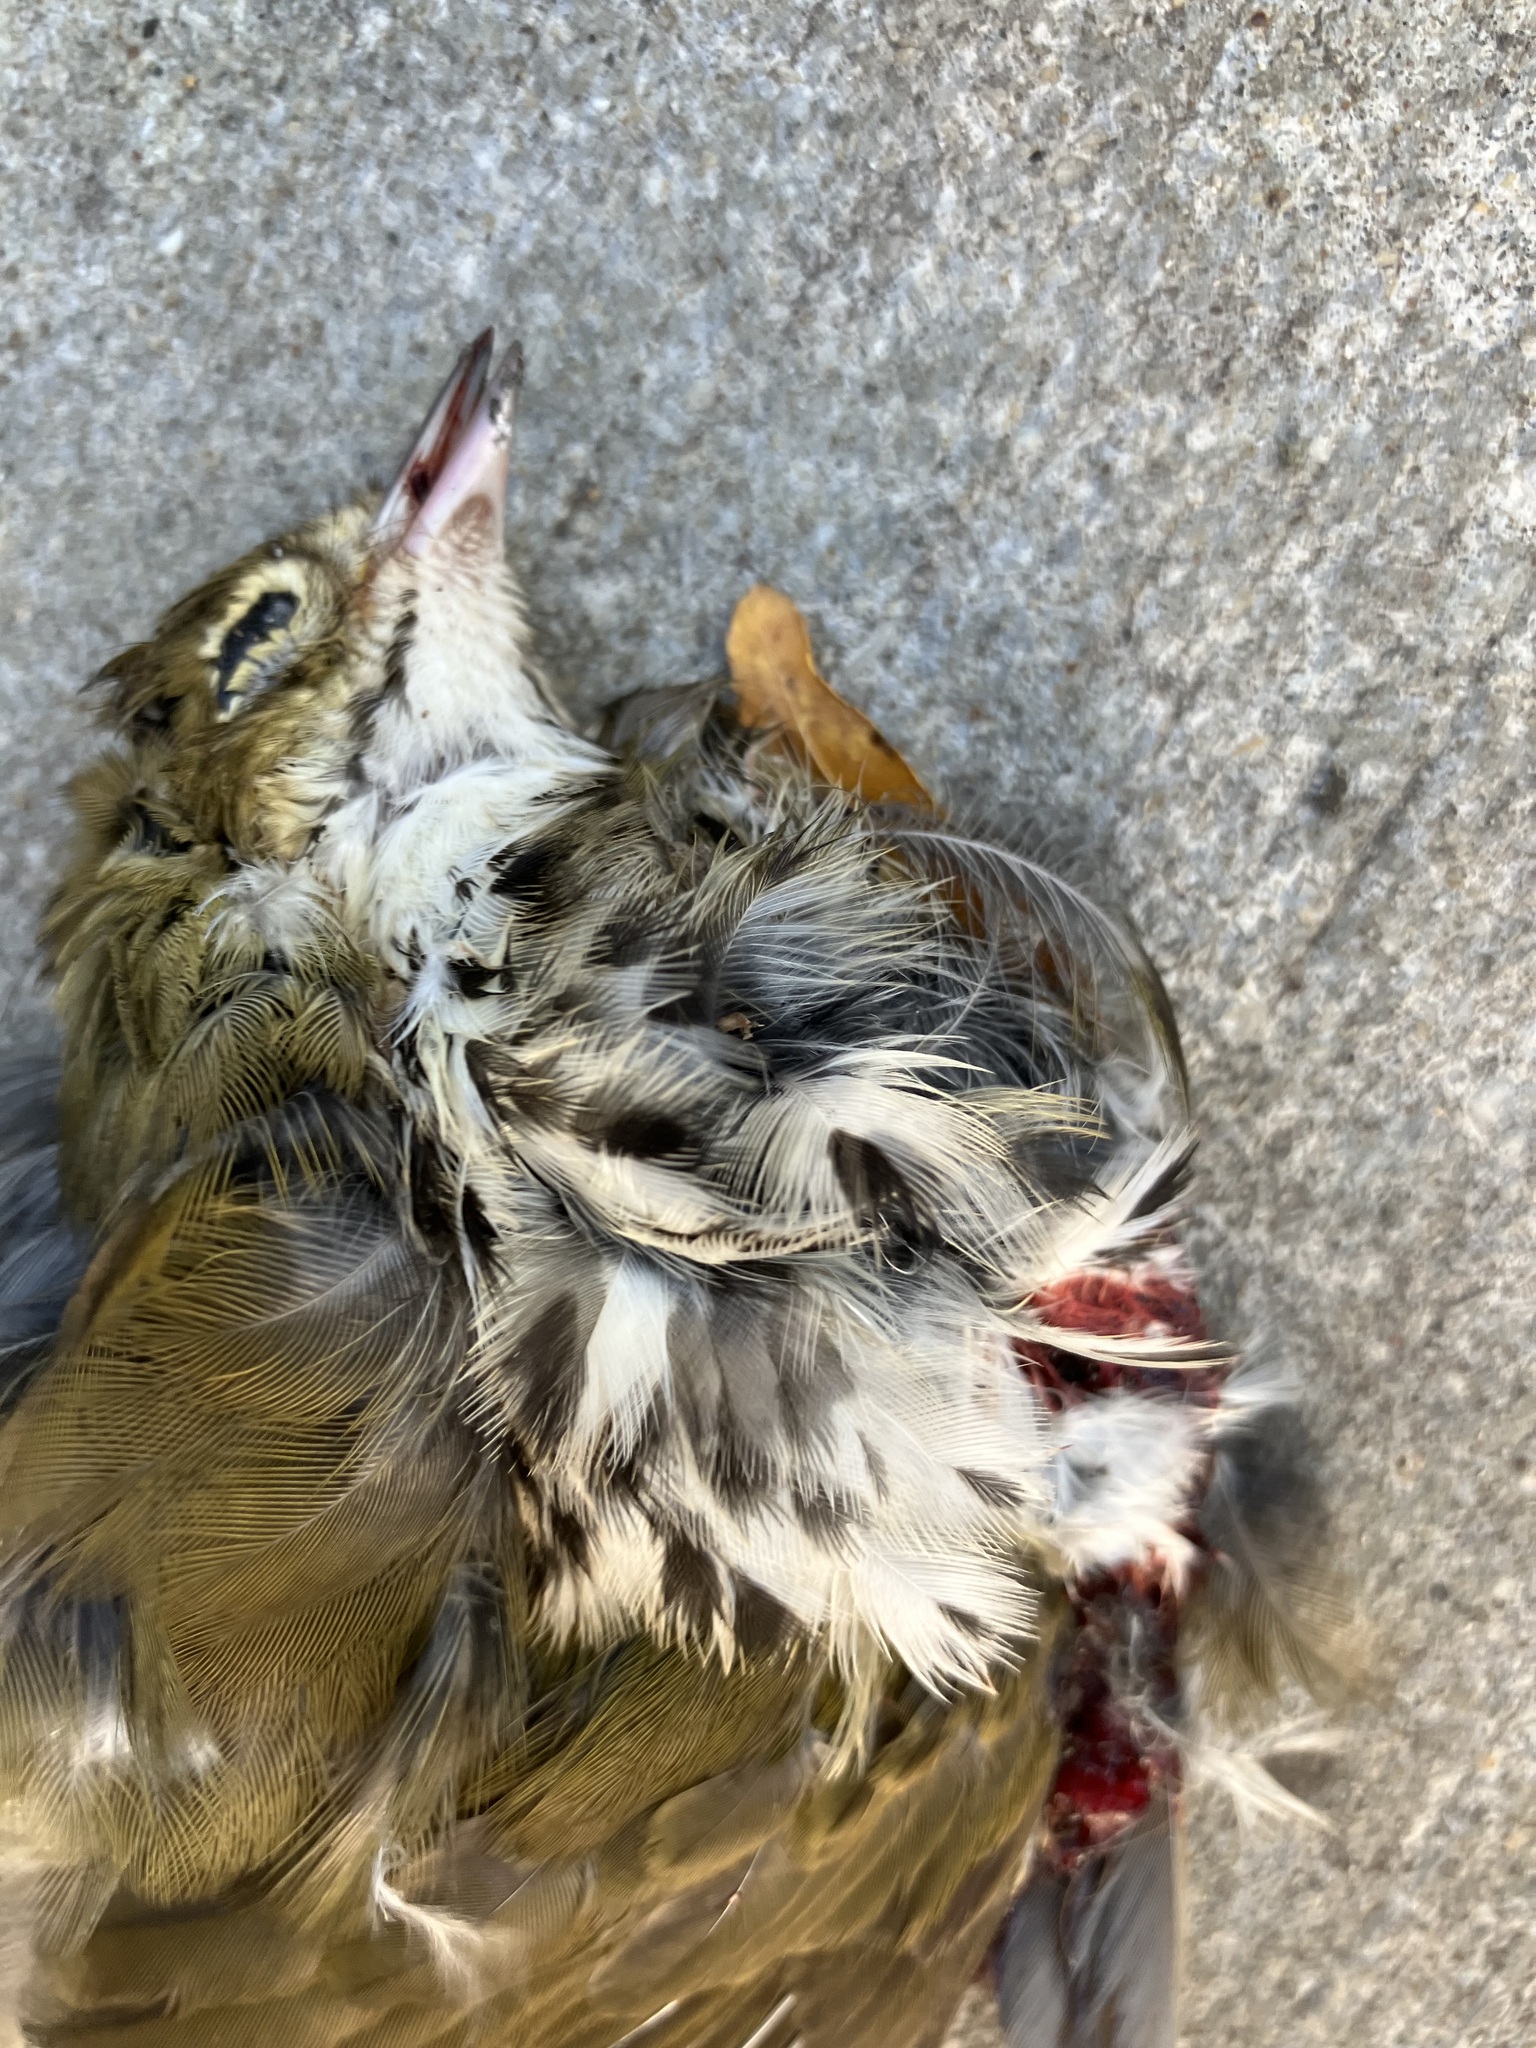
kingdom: Animalia
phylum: Chordata
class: Aves
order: Passeriformes
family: Parulidae
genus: Seiurus
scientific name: Seiurus aurocapilla
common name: Ovenbird
